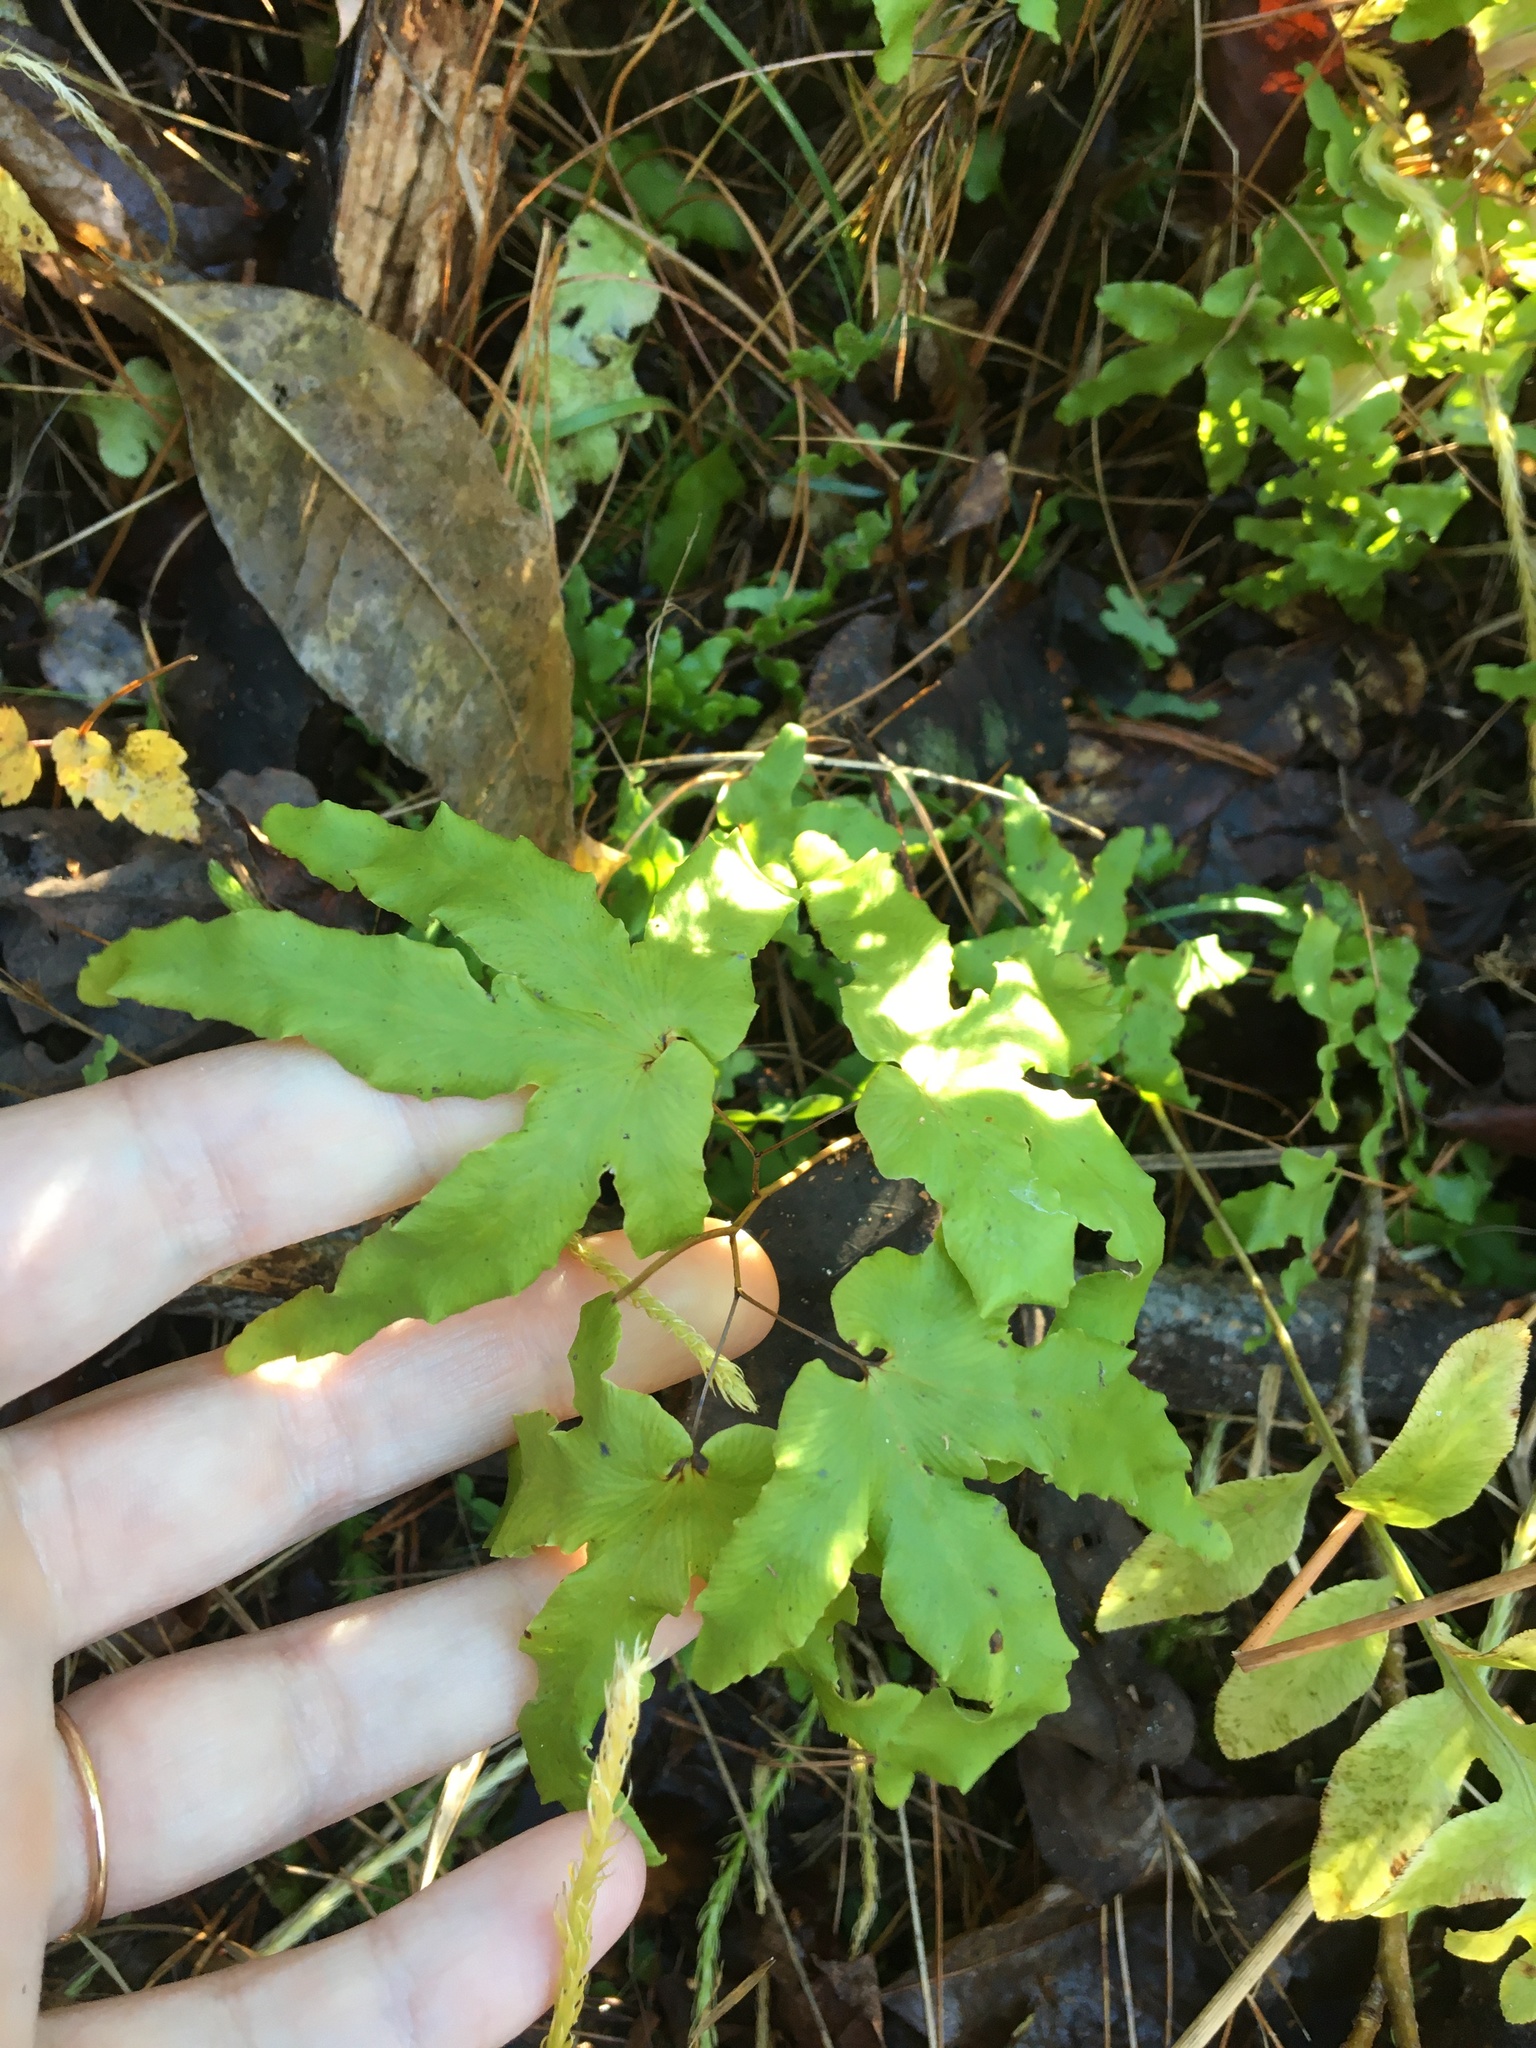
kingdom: Plantae
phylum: Tracheophyta
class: Polypodiopsida
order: Schizaeales
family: Lygodiaceae
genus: Lygodium
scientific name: Lygodium palmatum
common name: American climbing fern
